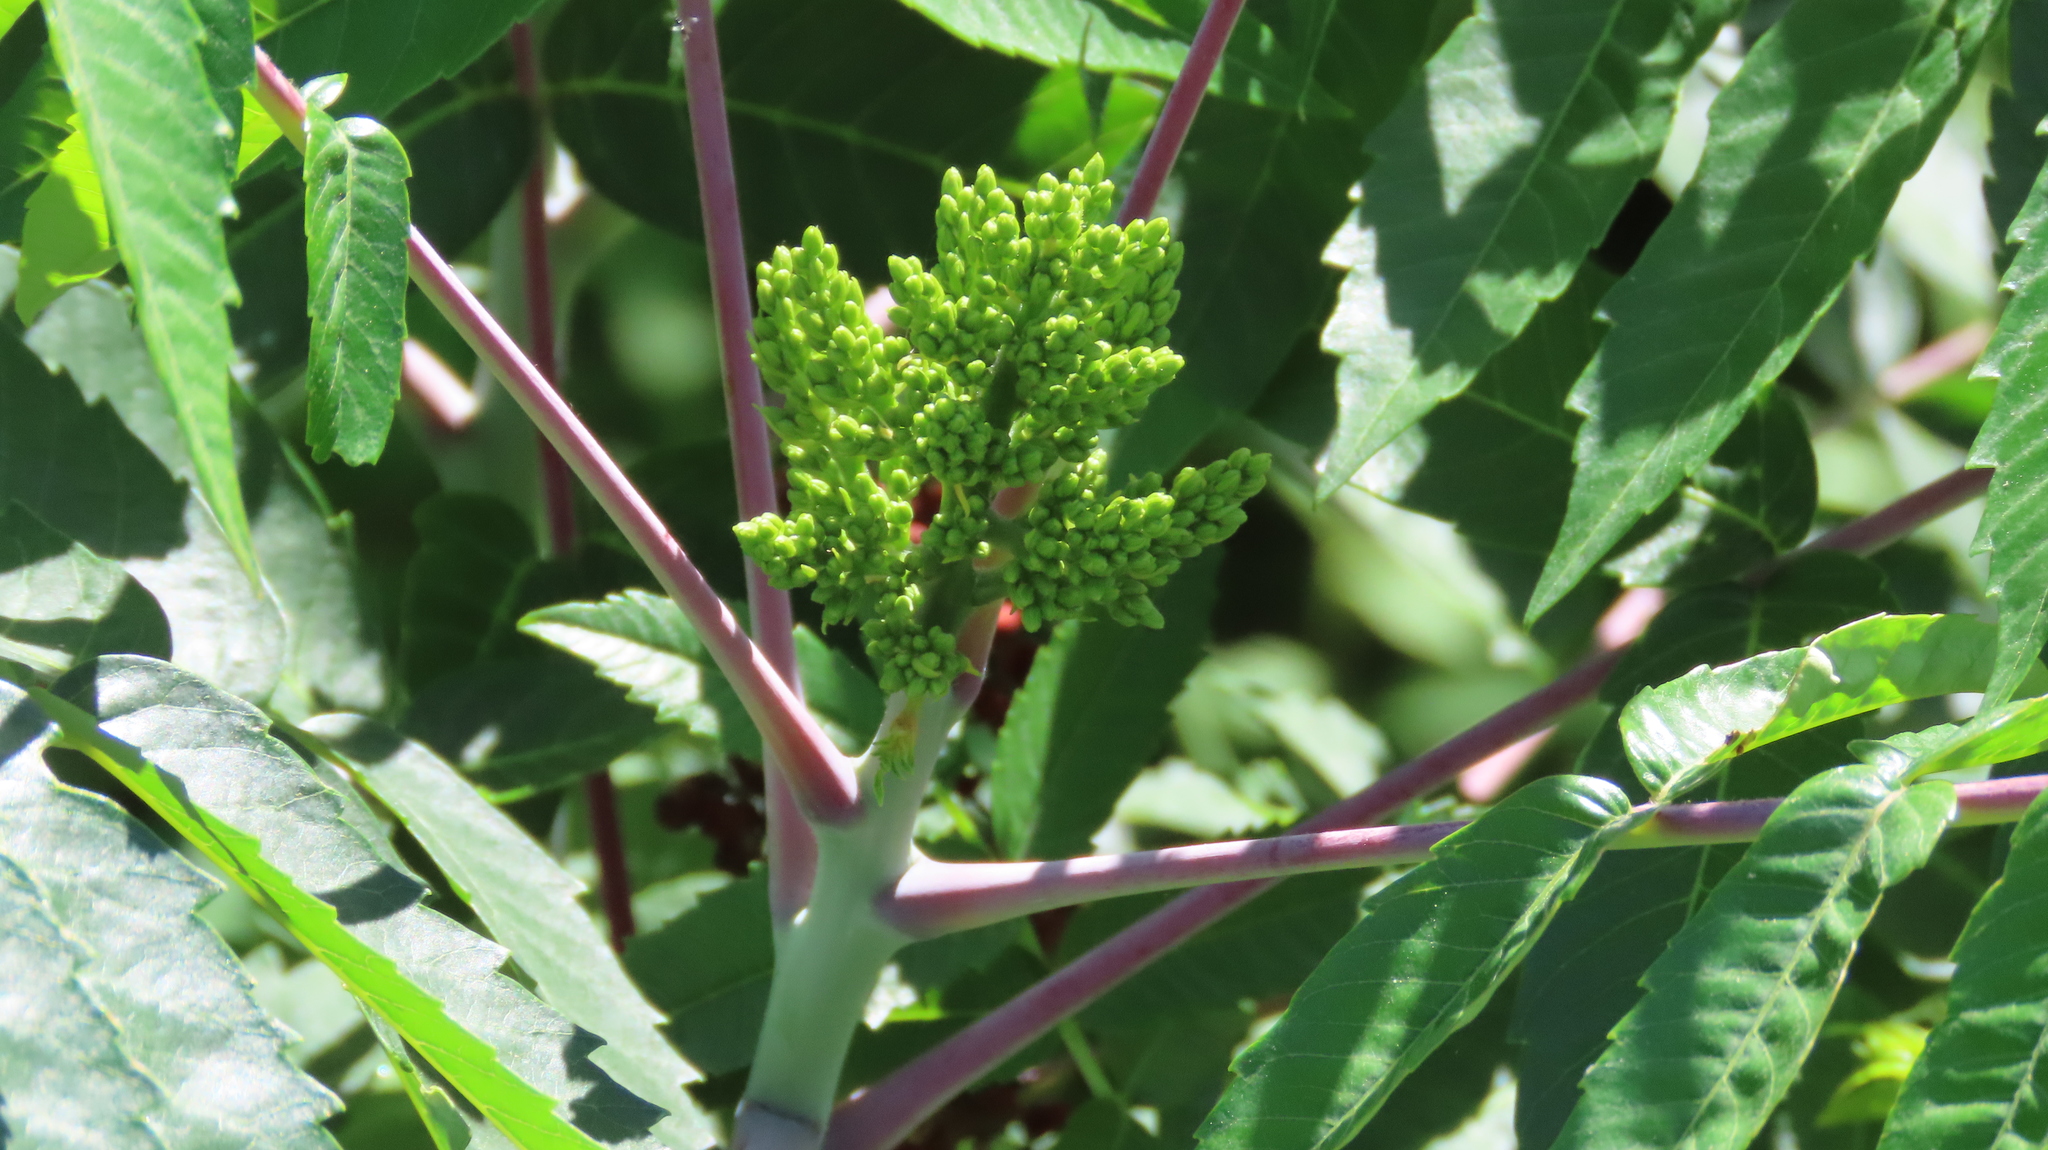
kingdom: Plantae
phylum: Tracheophyta
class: Magnoliopsida
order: Sapindales
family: Anacardiaceae
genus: Rhus
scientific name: Rhus glabra
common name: Scarlet sumac
